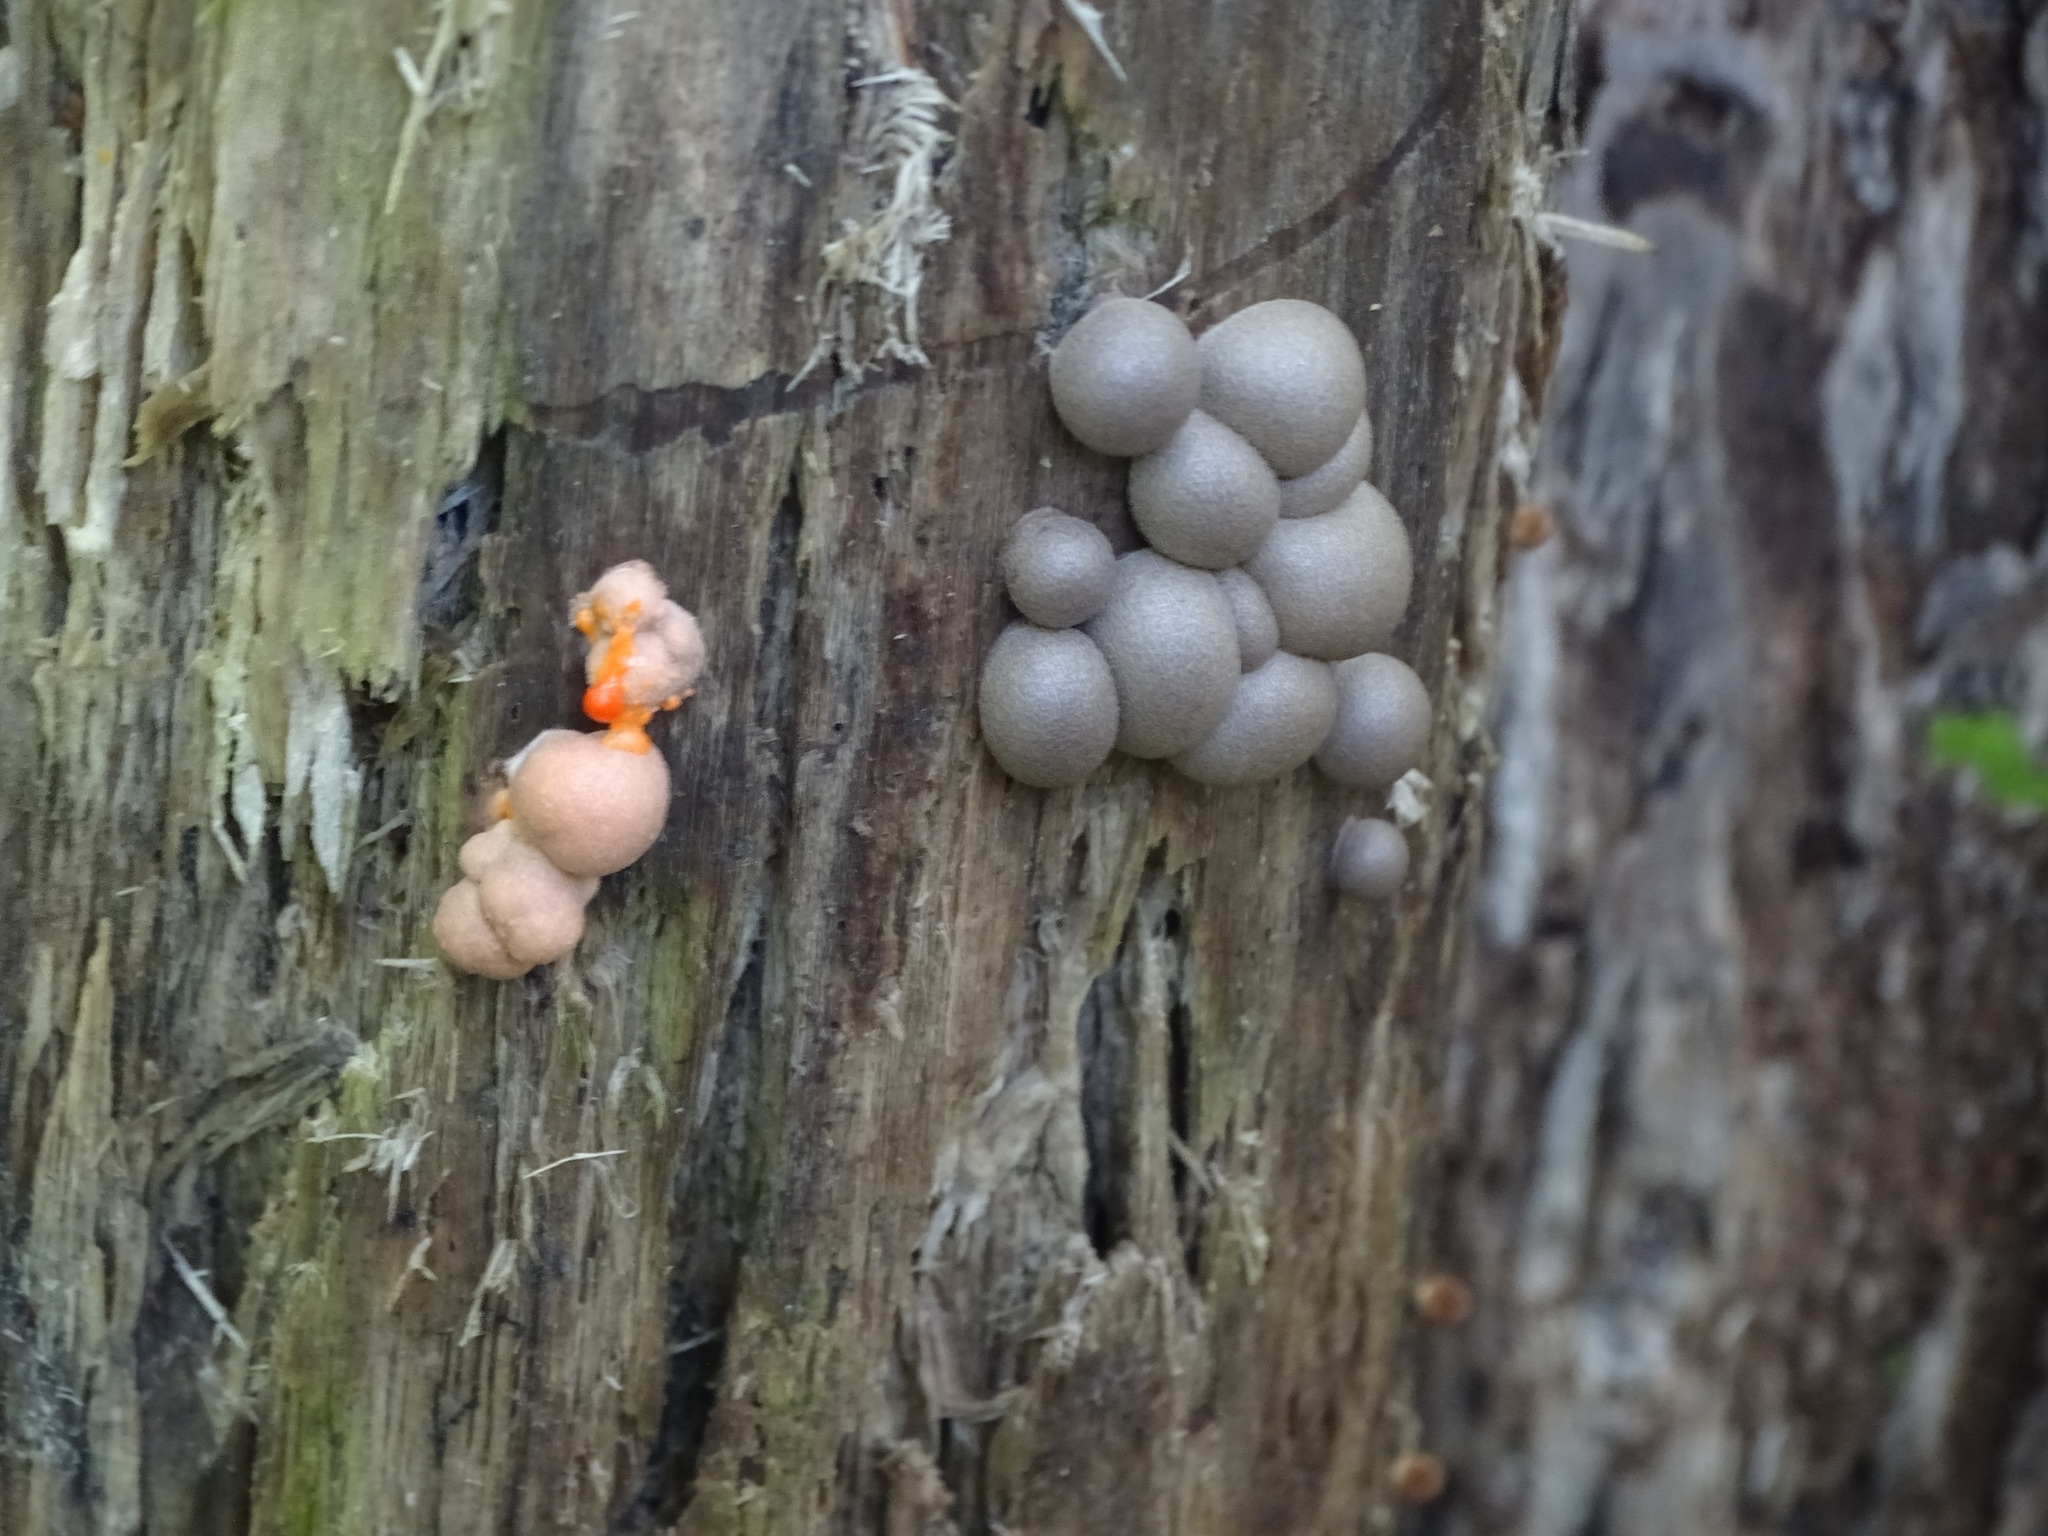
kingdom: Protozoa
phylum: Mycetozoa
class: Myxomycetes
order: Cribrariales
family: Tubiferaceae
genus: Lycogala
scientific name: Lycogala epidendrum
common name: Wolf's milk
